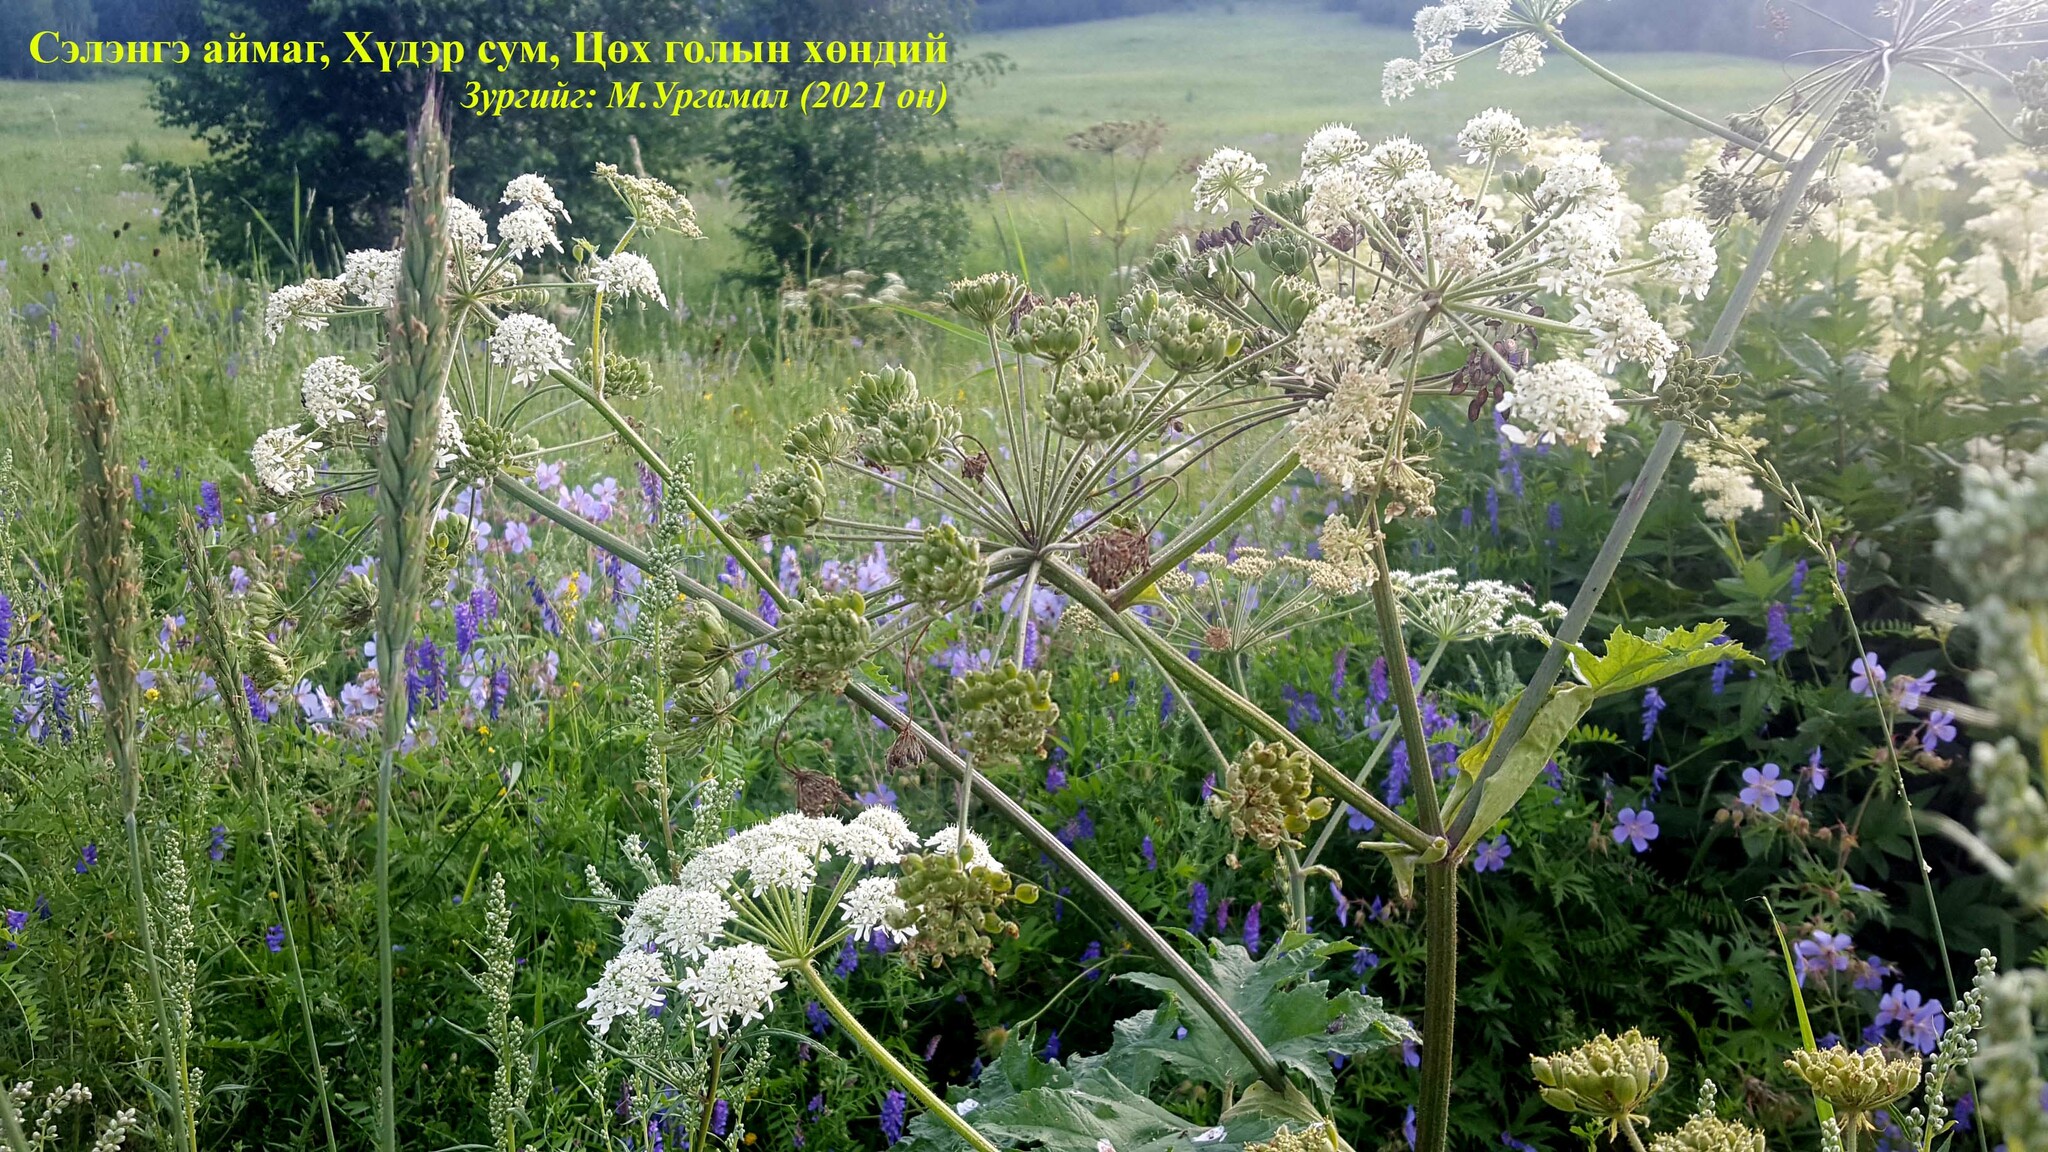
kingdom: Plantae
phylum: Tracheophyta
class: Magnoliopsida
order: Apiales
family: Apiaceae
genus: Heracleum
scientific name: Heracleum dissectum
